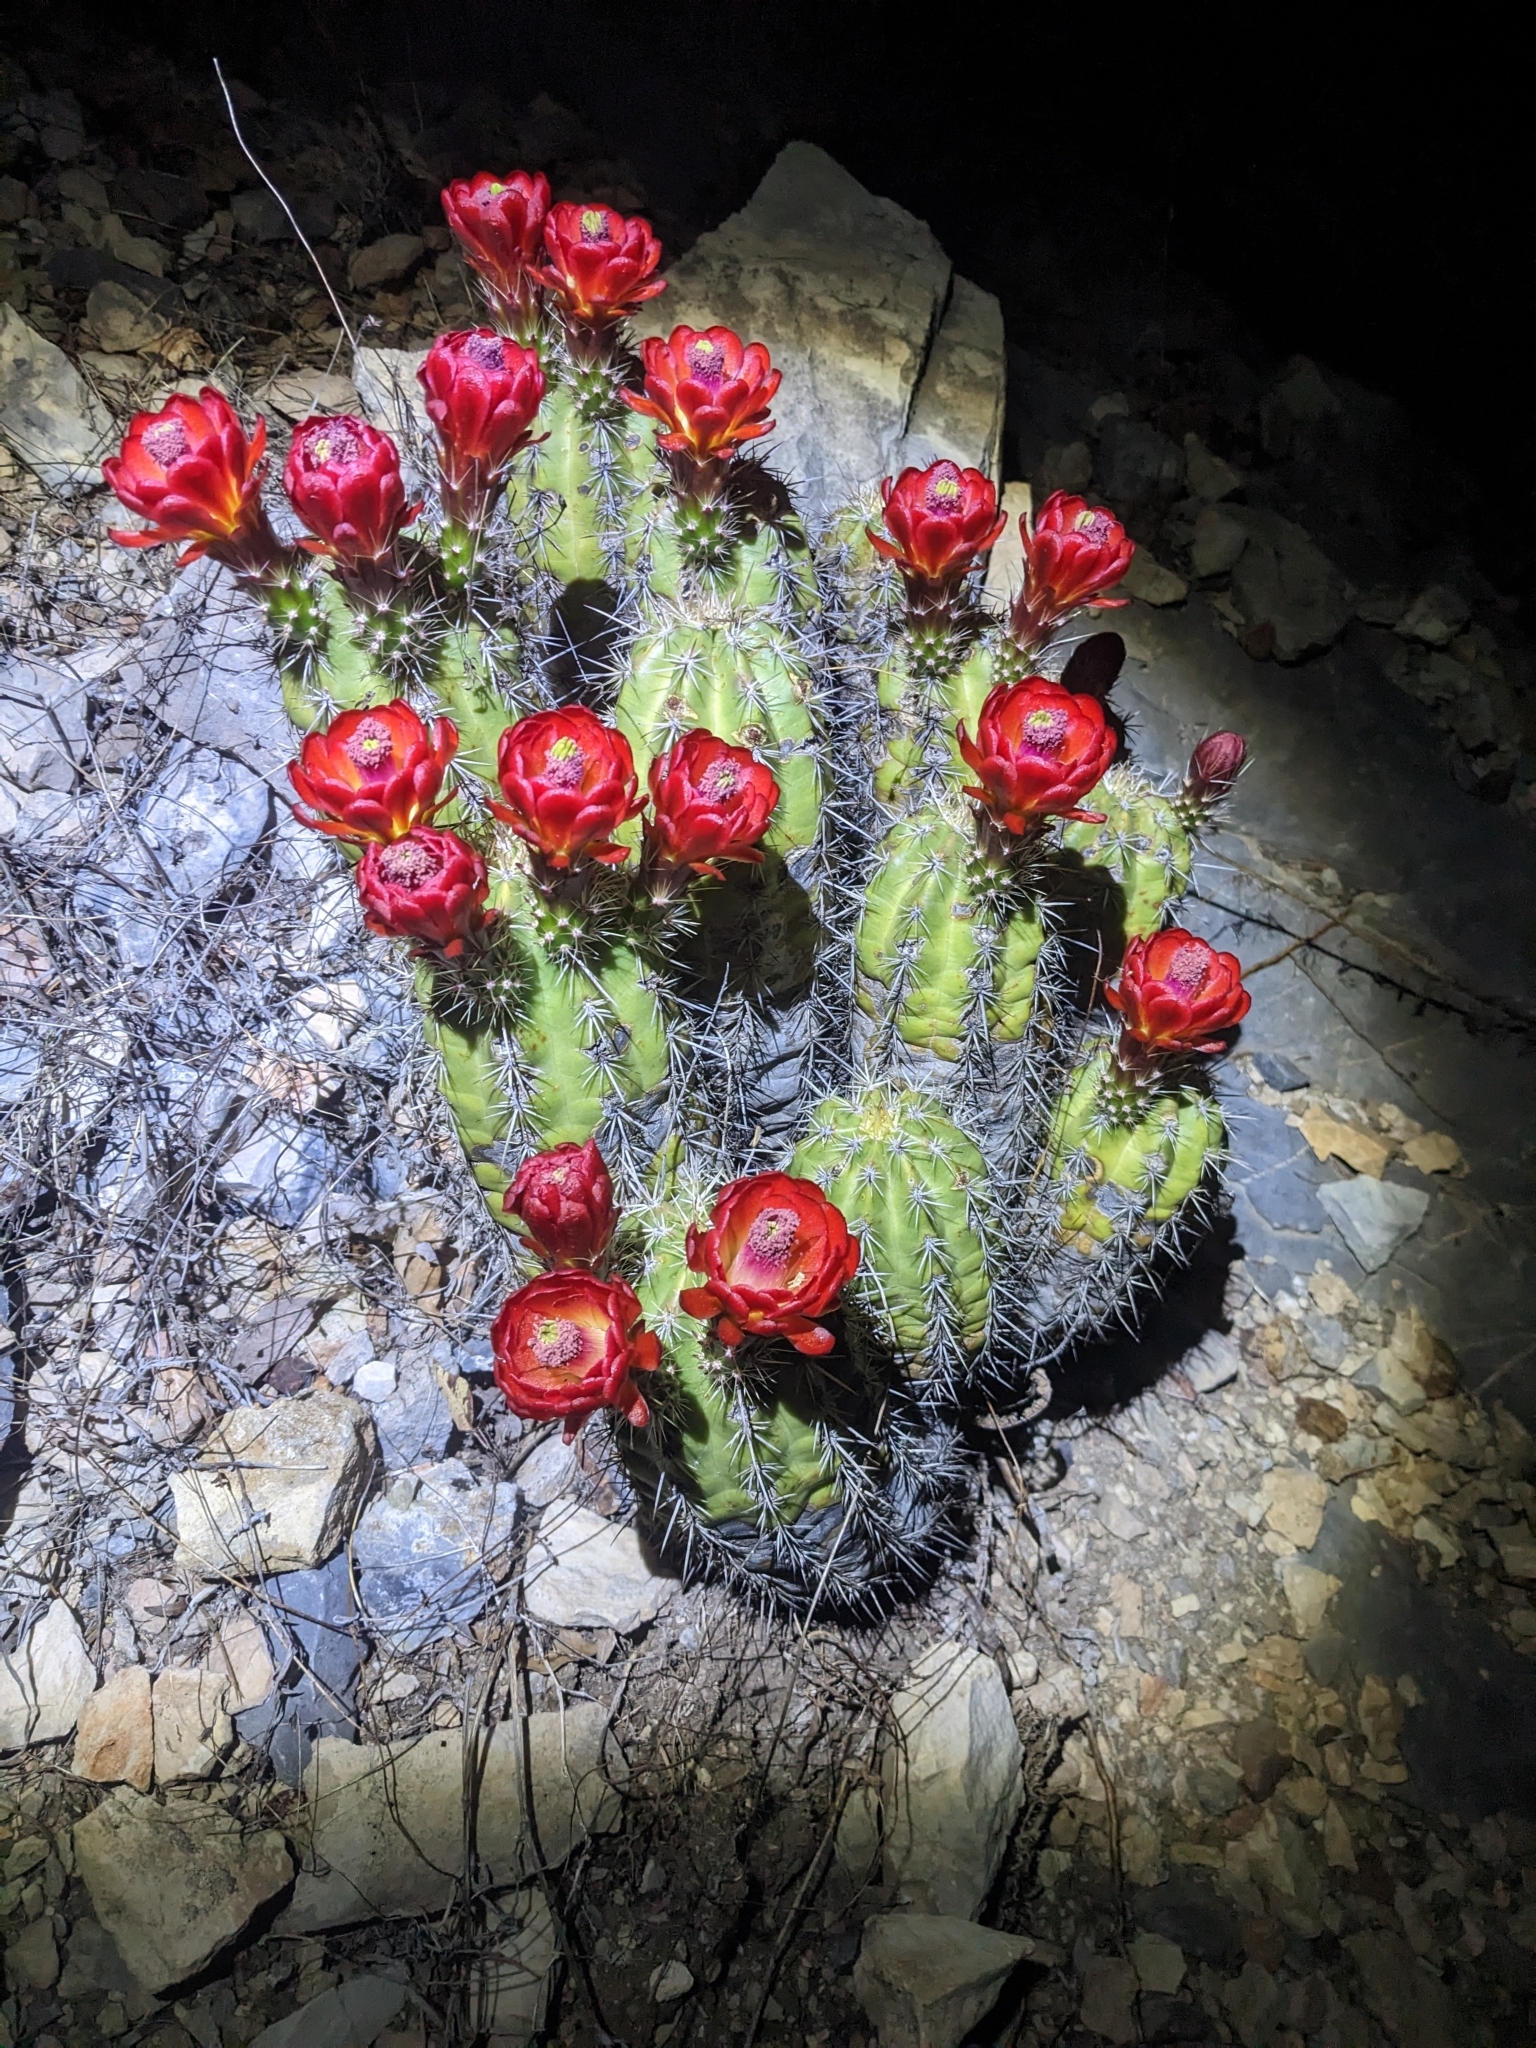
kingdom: Plantae
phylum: Tracheophyta
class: Magnoliopsida
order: Caryophyllales
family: Cactaceae
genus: Echinocereus
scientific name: Echinocereus arizonicus
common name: Arizona hedgehog cactus
